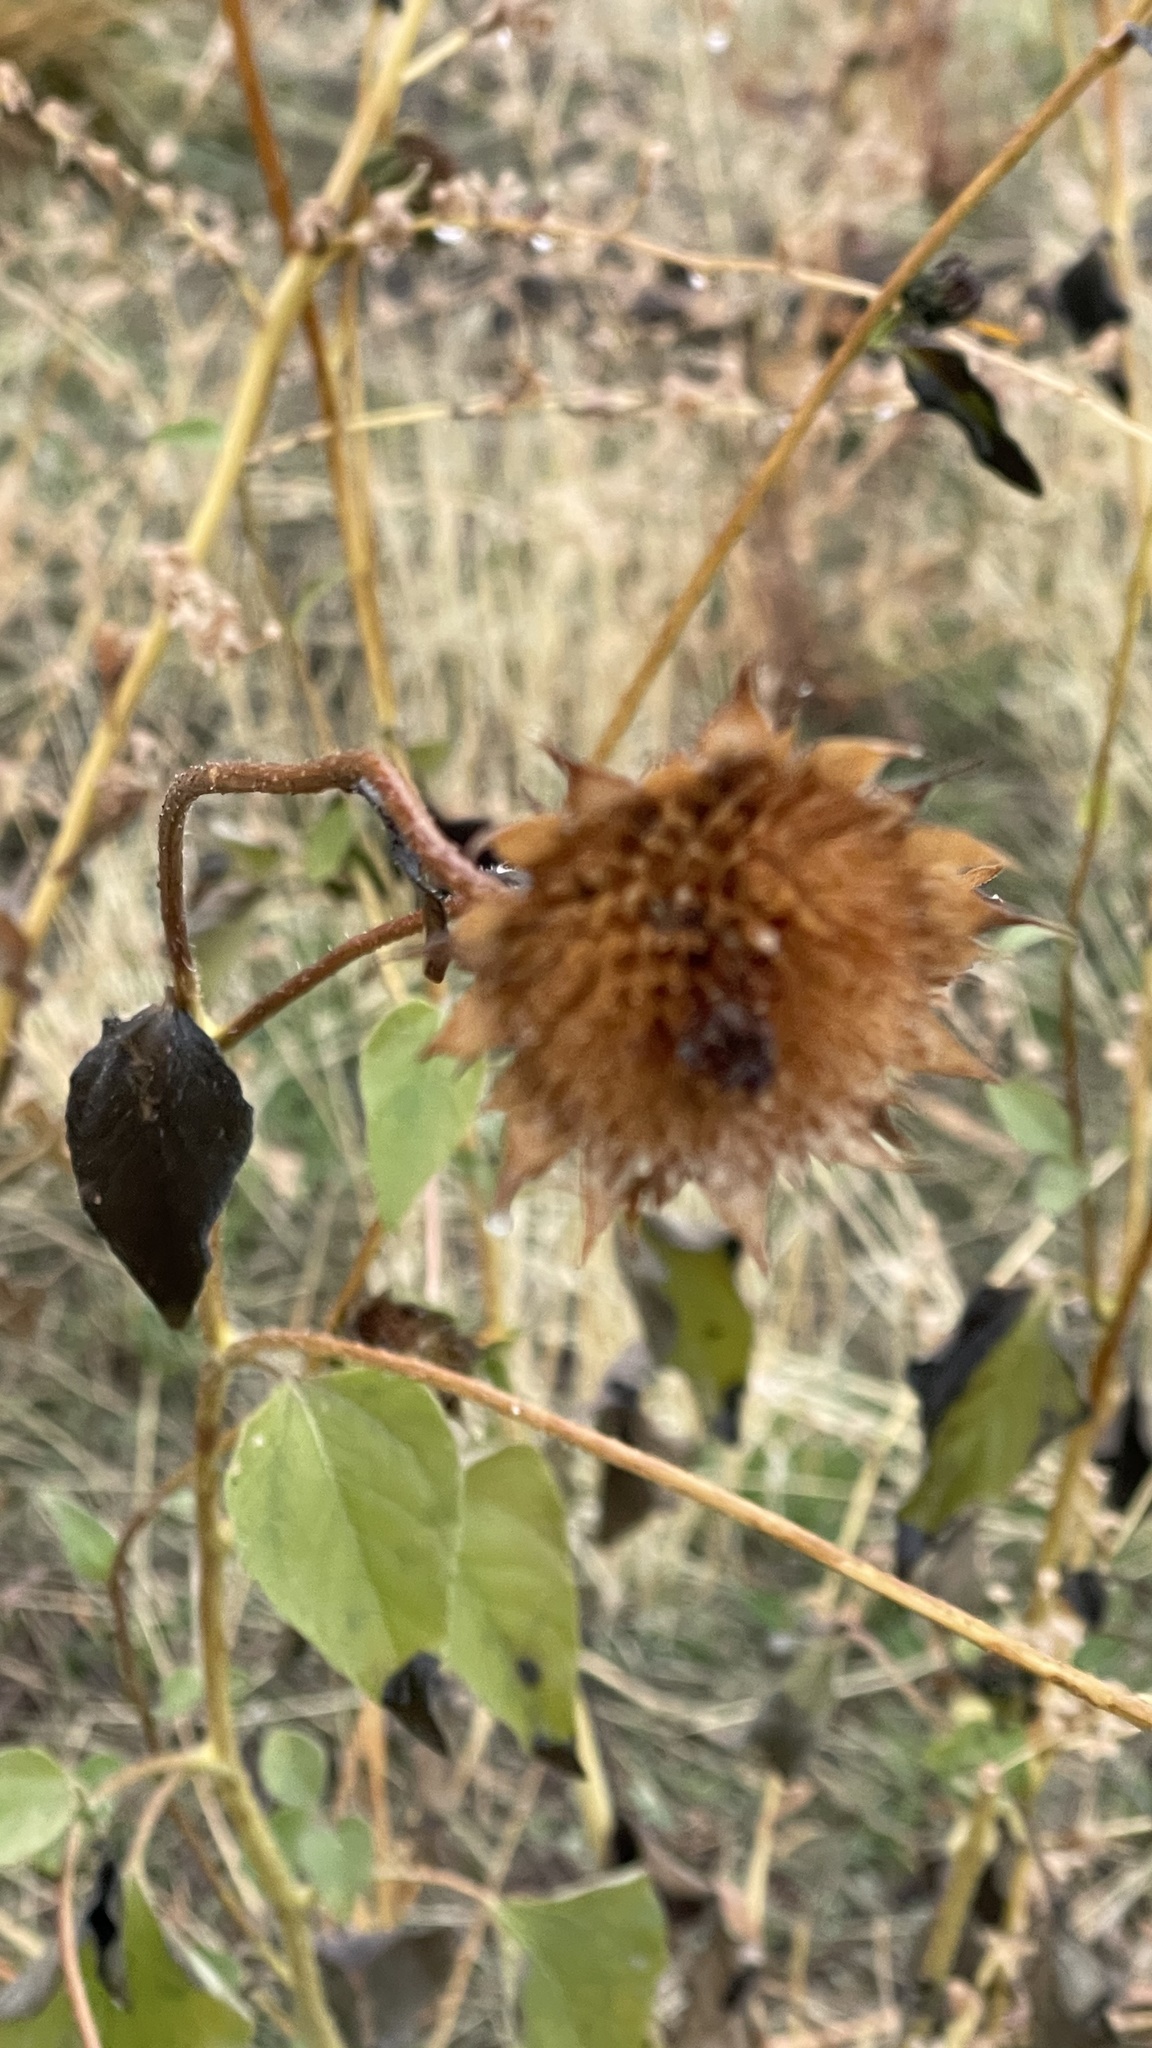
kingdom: Plantae
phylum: Tracheophyta
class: Magnoliopsida
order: Asterales
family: Asteraceae
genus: Helianthus
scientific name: Helianthus annuus
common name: Sunflower
